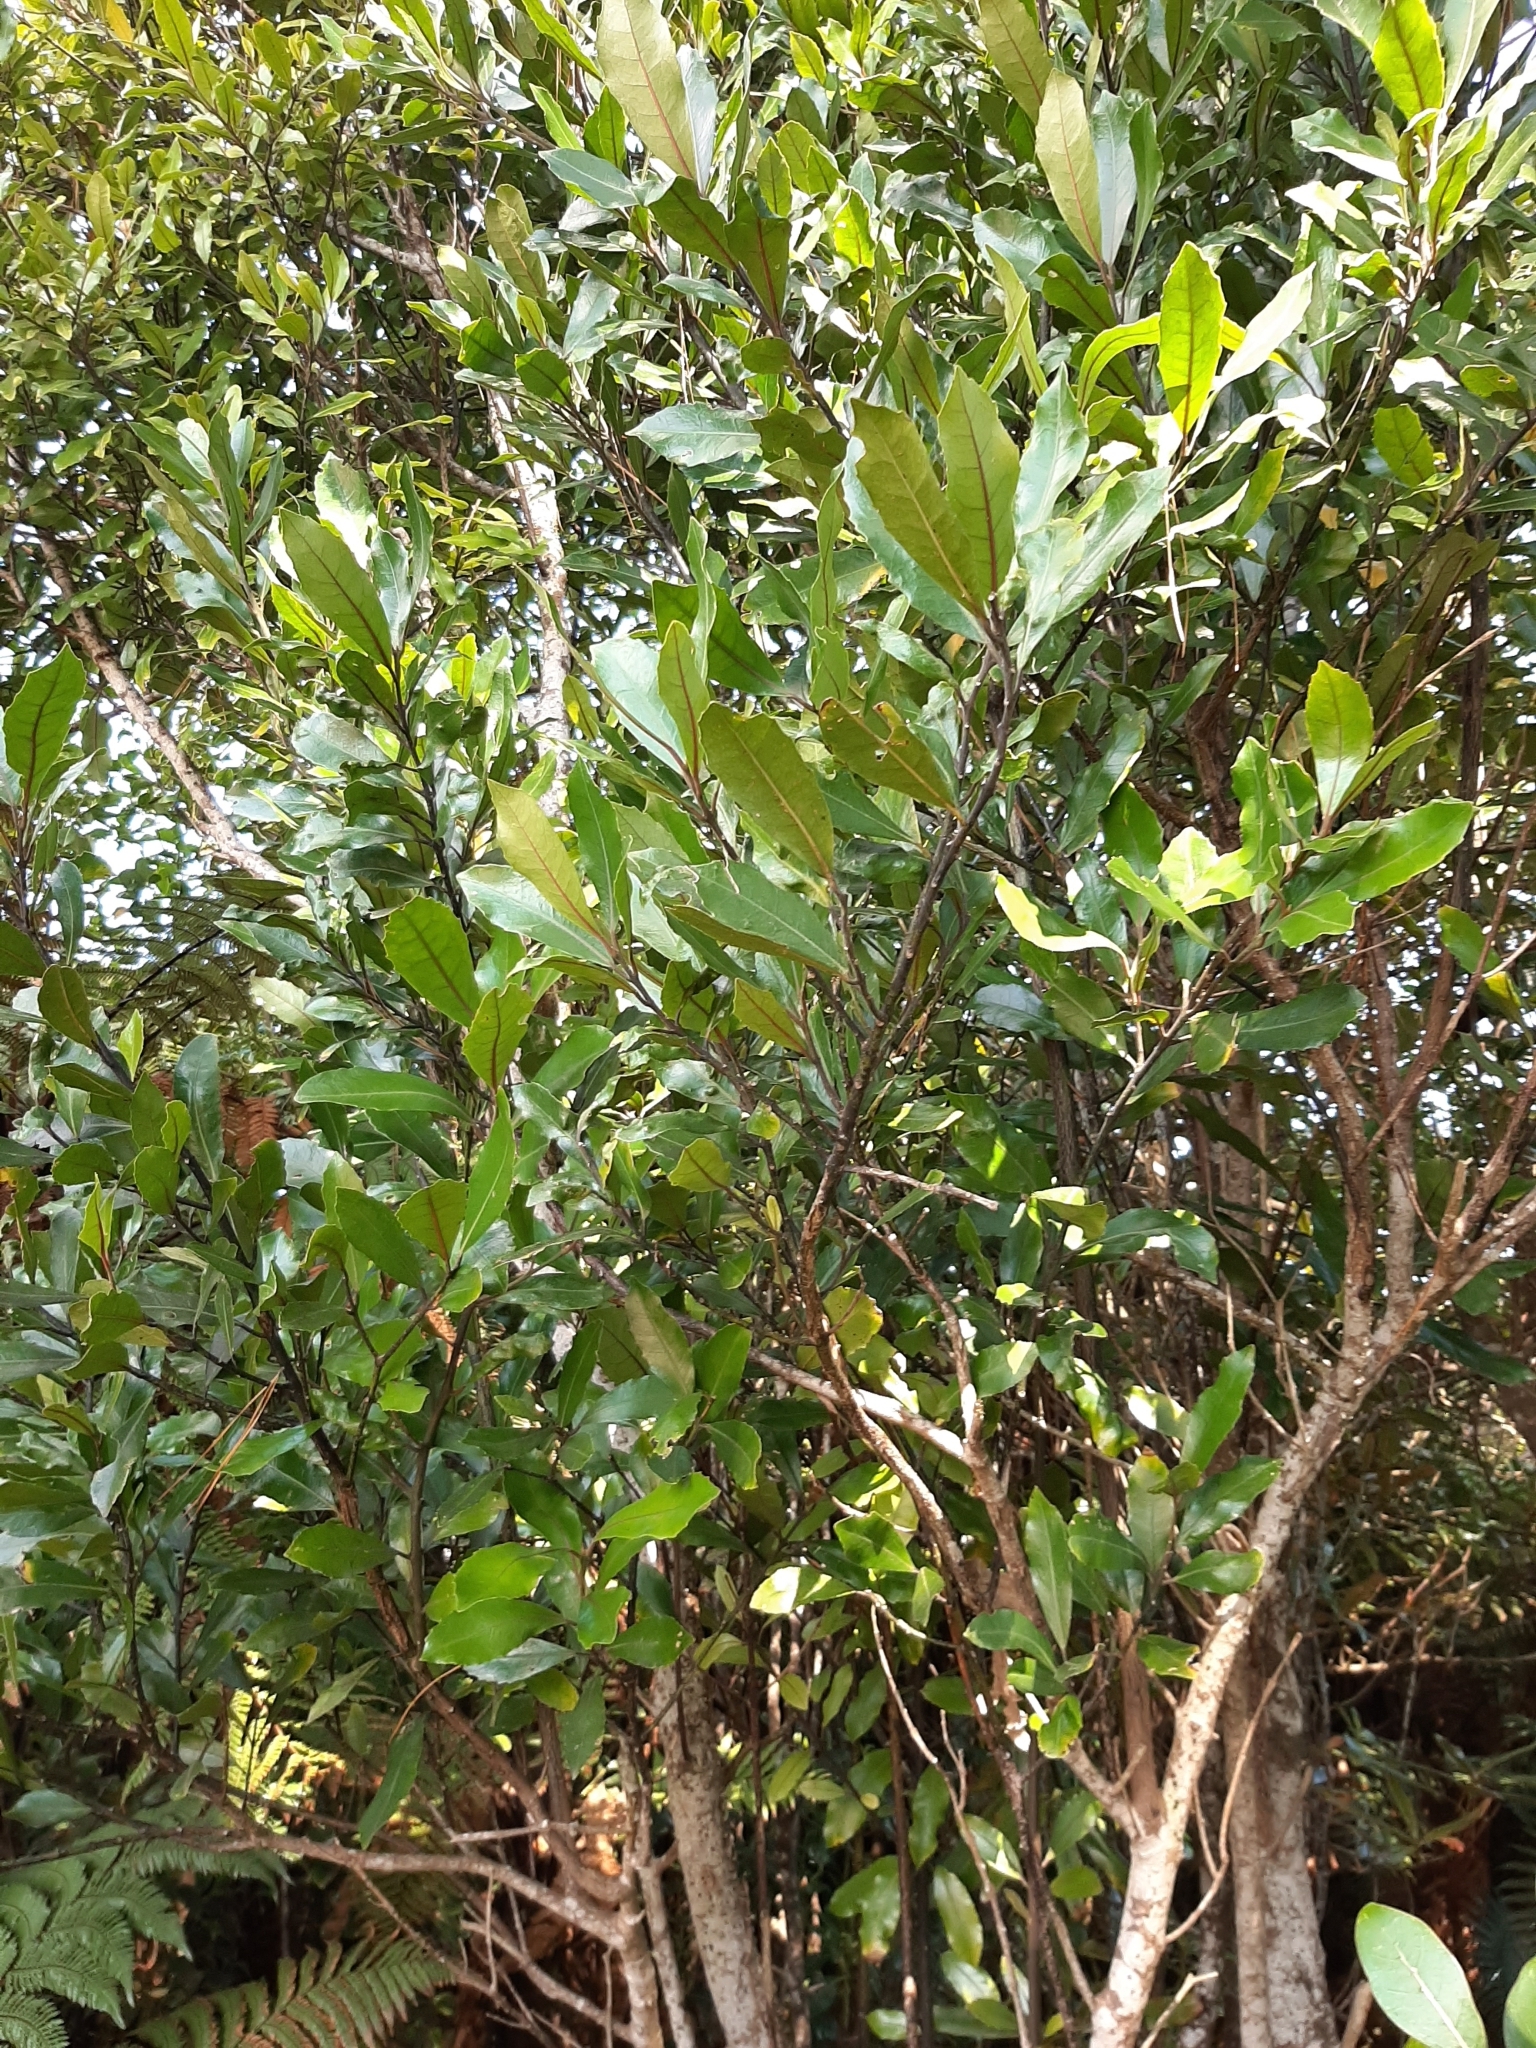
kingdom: Plantae
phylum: Tracheophyta
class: Magnoliopsida
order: Laurales
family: Monimiaceae
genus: Hedycarya
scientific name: Hedycarya arborea
